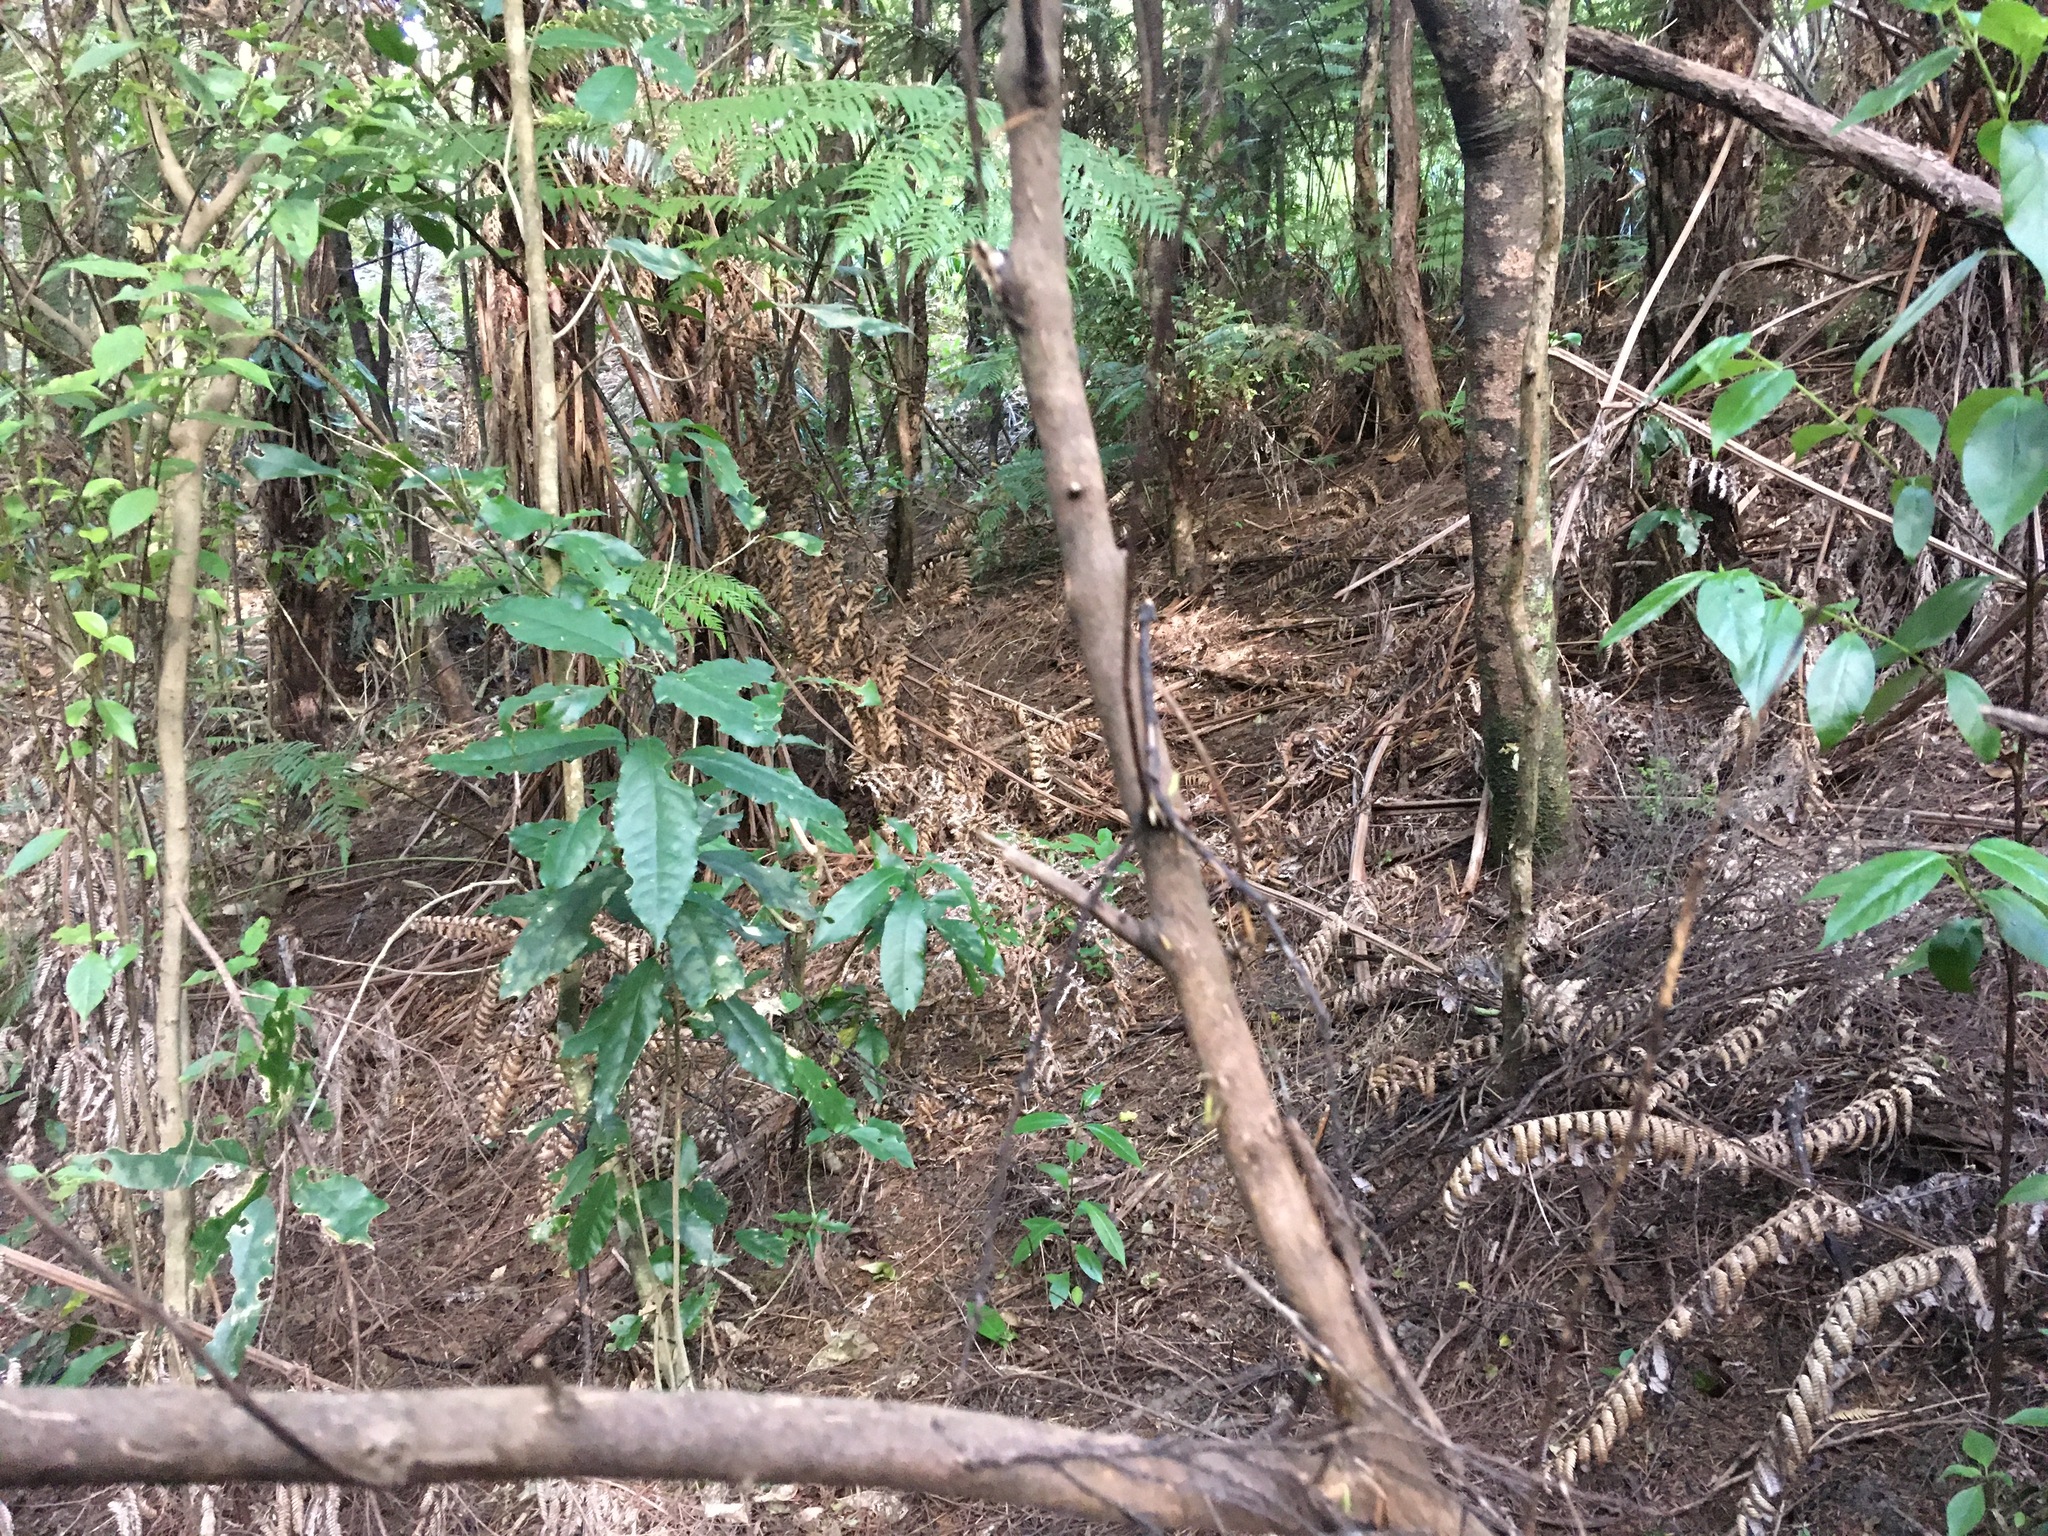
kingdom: Plantae
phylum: Tracheophyta
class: Magnoliopsida
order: Malpighiales
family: Violaceae
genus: Melicytus
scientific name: Melicytus ramiflorus
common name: Mahoe
